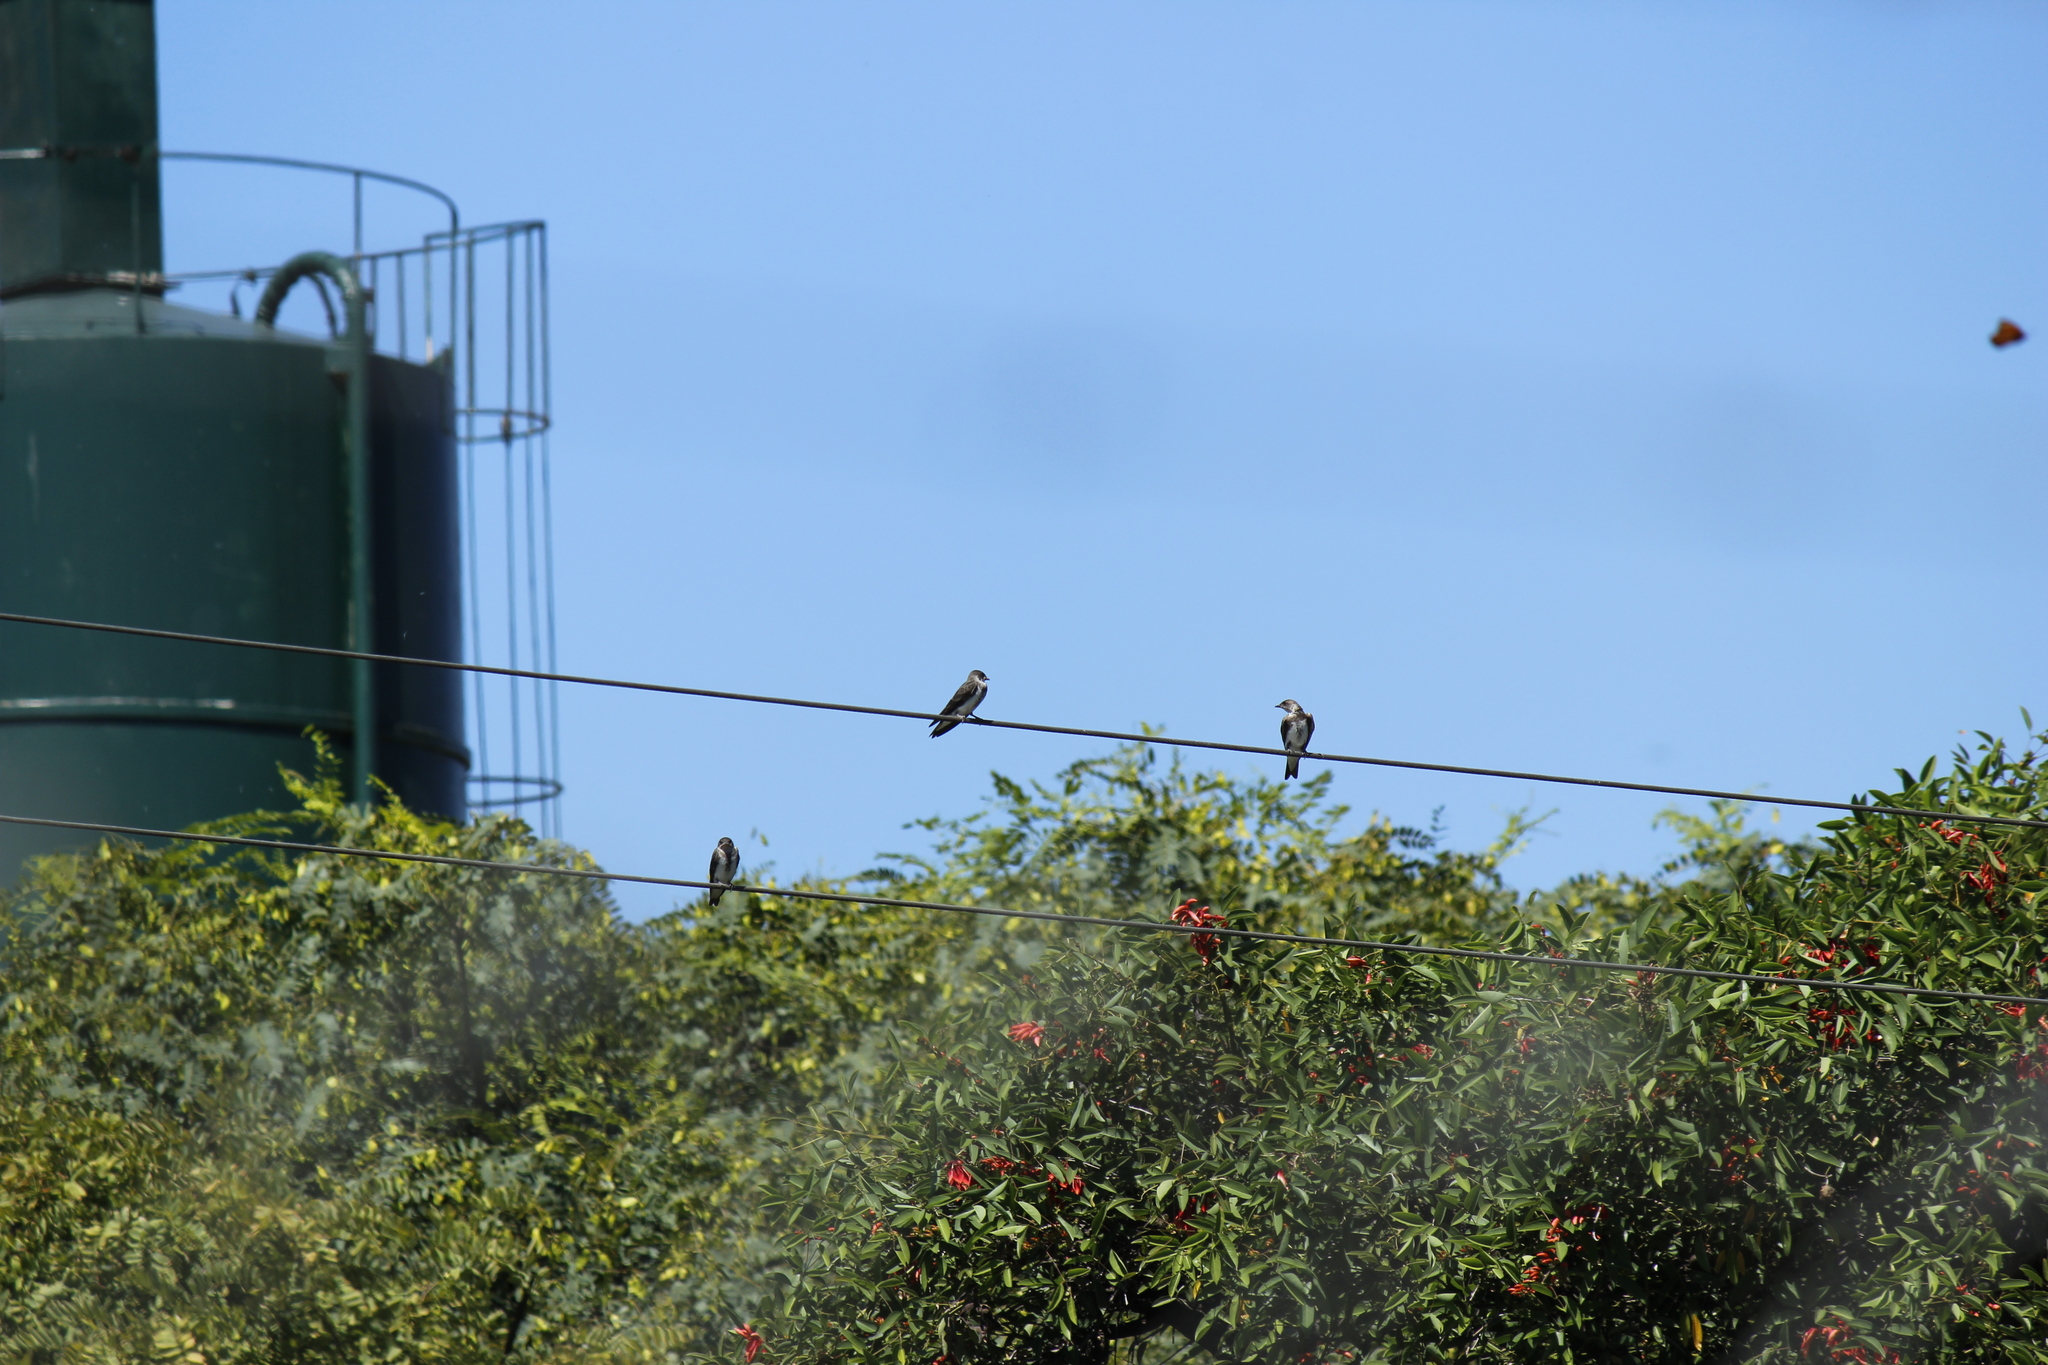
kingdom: Animalia
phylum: Chordata
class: Aves
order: Passeriformes
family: Hirundinidae
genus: Progne
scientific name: Progne tapera
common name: Brown-chested martin
